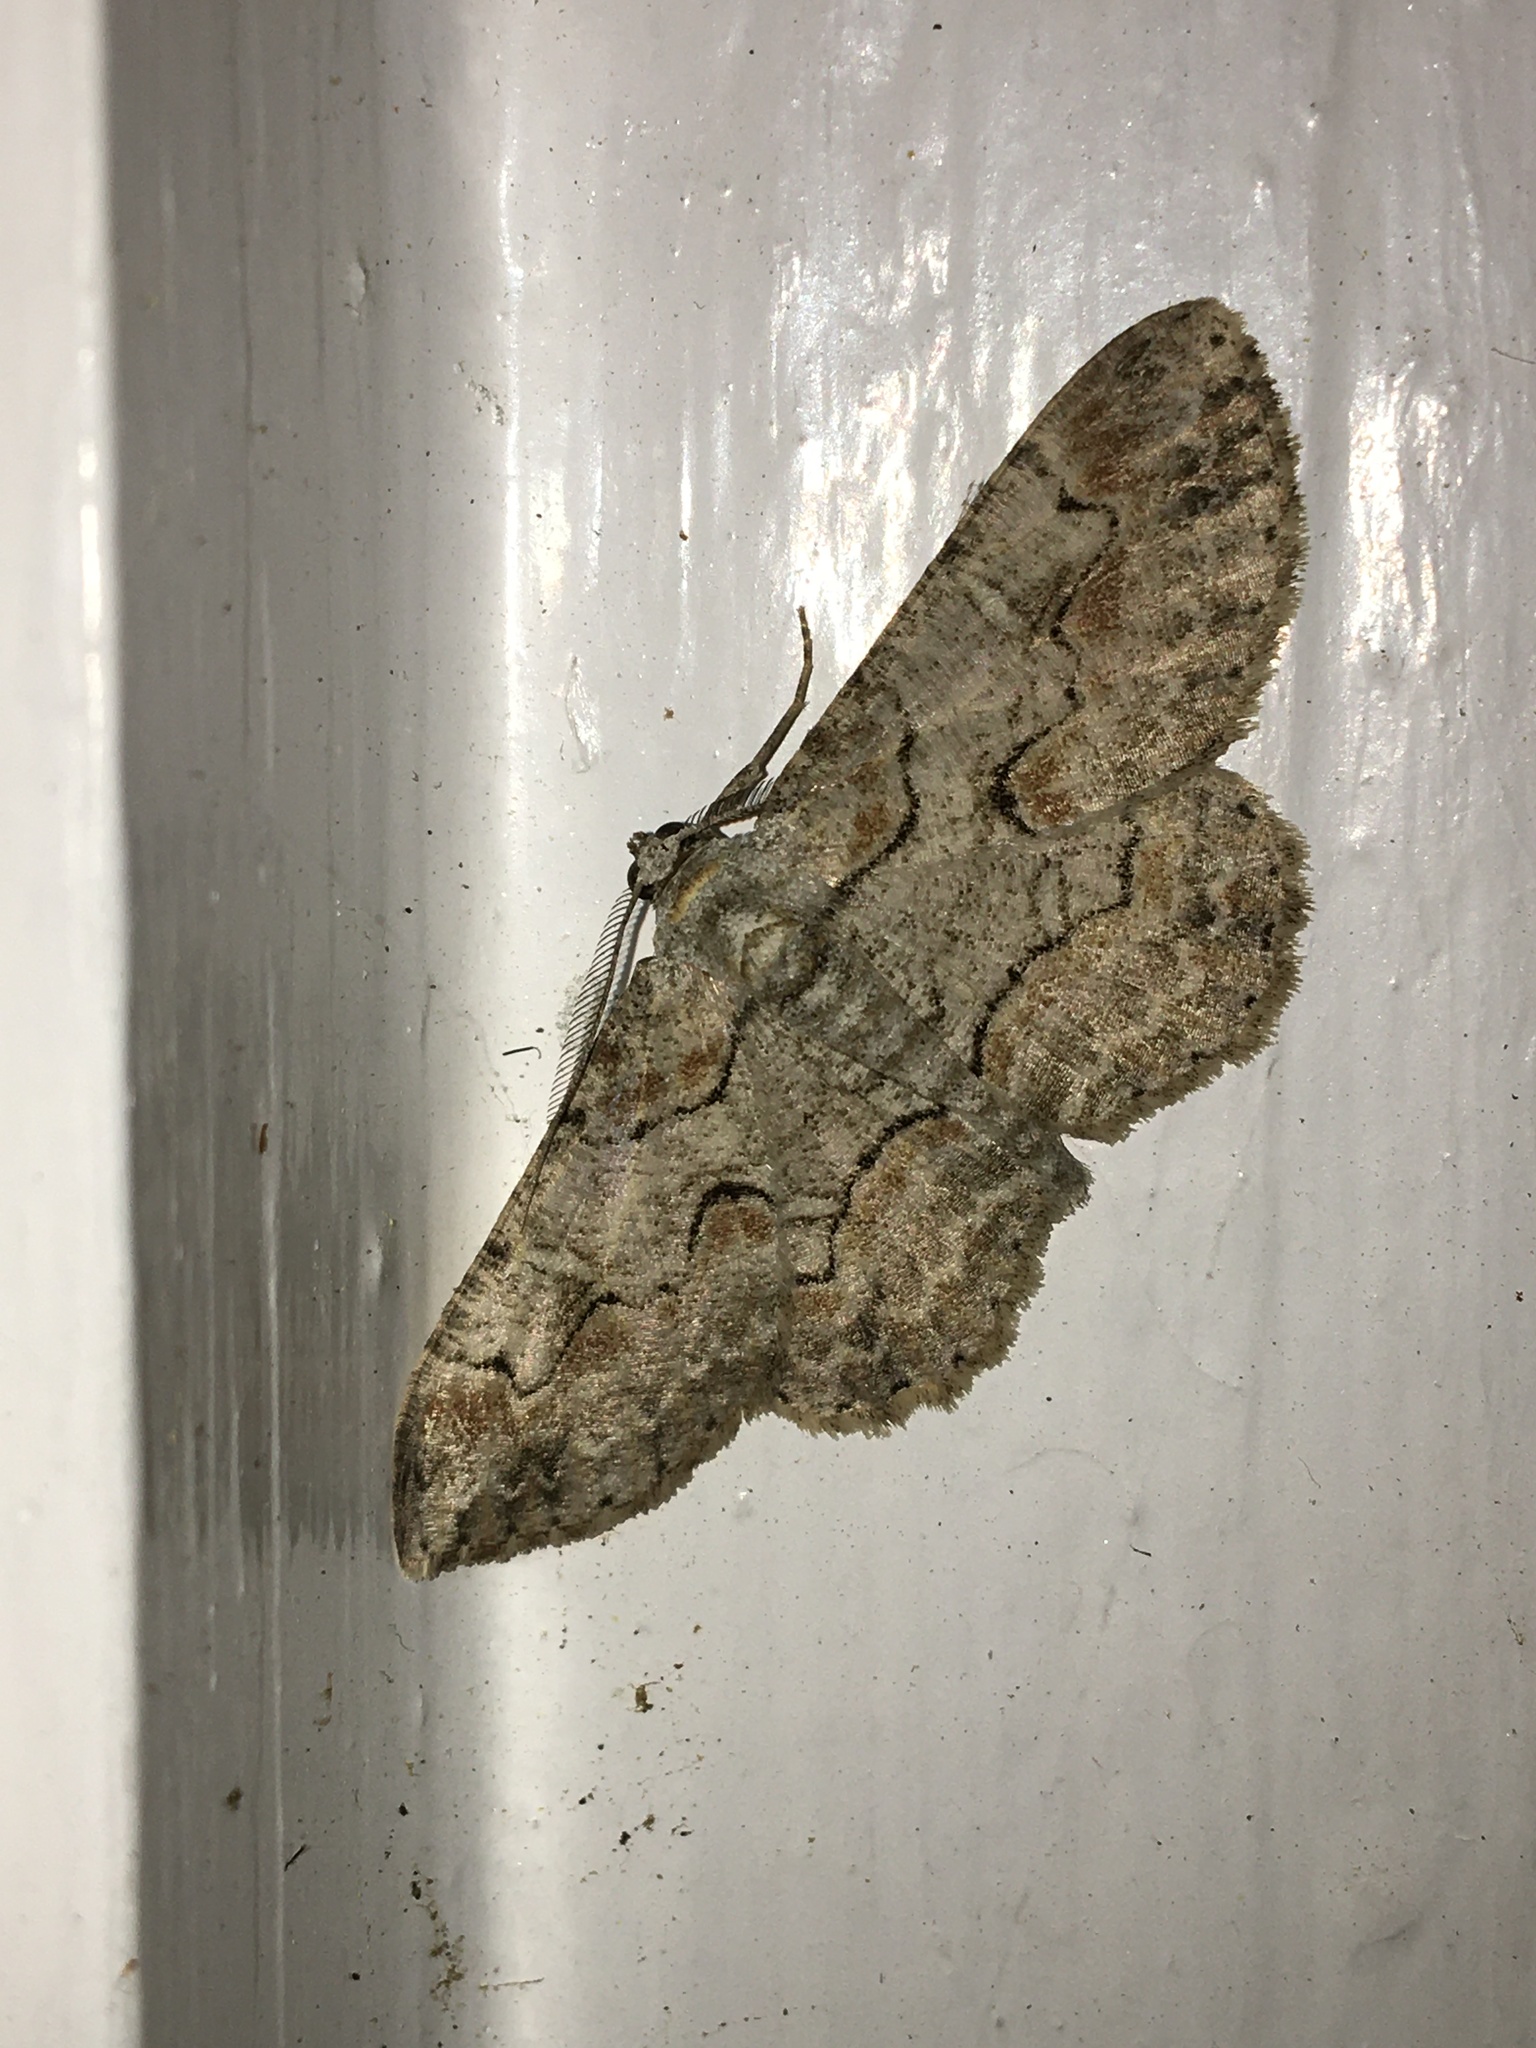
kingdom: Animalia
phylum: Arthropoda
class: Insecta
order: Lepidoptera
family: Geometridae
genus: Iridopsis
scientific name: Iridopsis defectaria
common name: Brown-shaded gray
